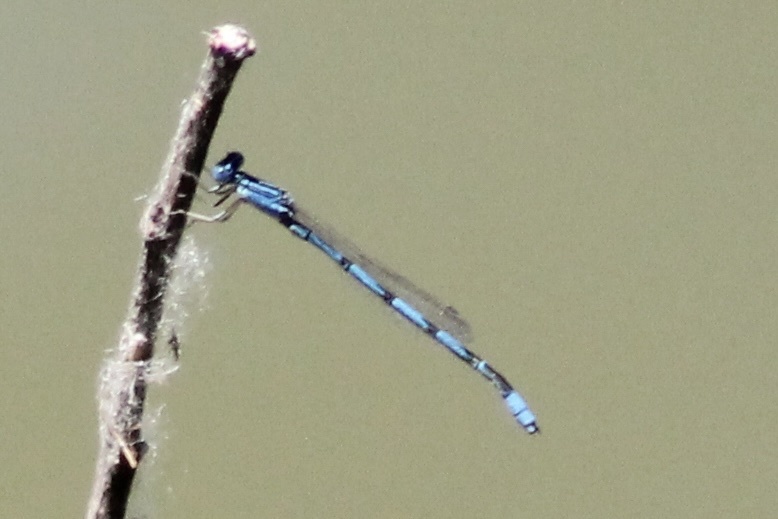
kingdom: Animalia
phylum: Arthropoda
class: Insecta
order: Odonata
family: Coenagrionidae
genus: Enallagma
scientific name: Enallagma basidens
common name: Double-striped bluet
